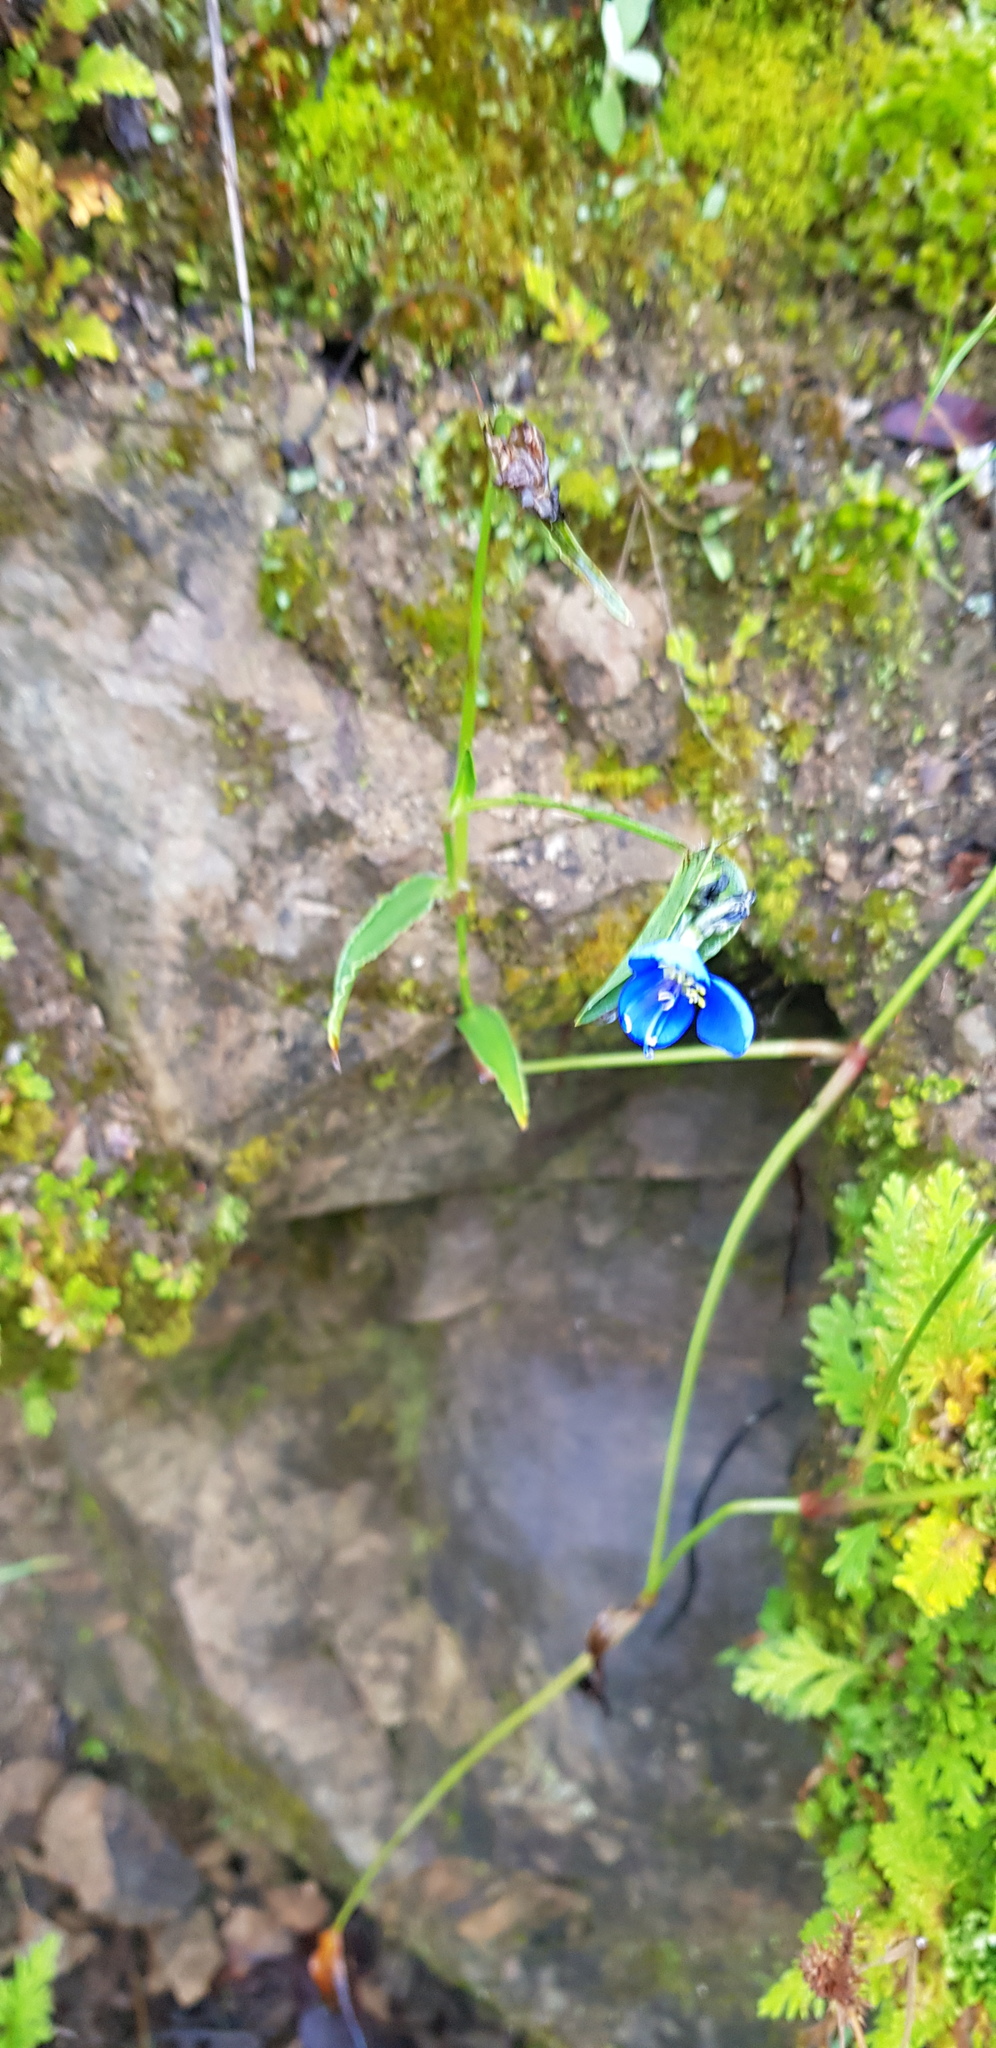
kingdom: Plantae
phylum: Tracheophyta
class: Liliopsida
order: Commelinales
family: Commelinaceae
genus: Commelina
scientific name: Commelina tuberosa
